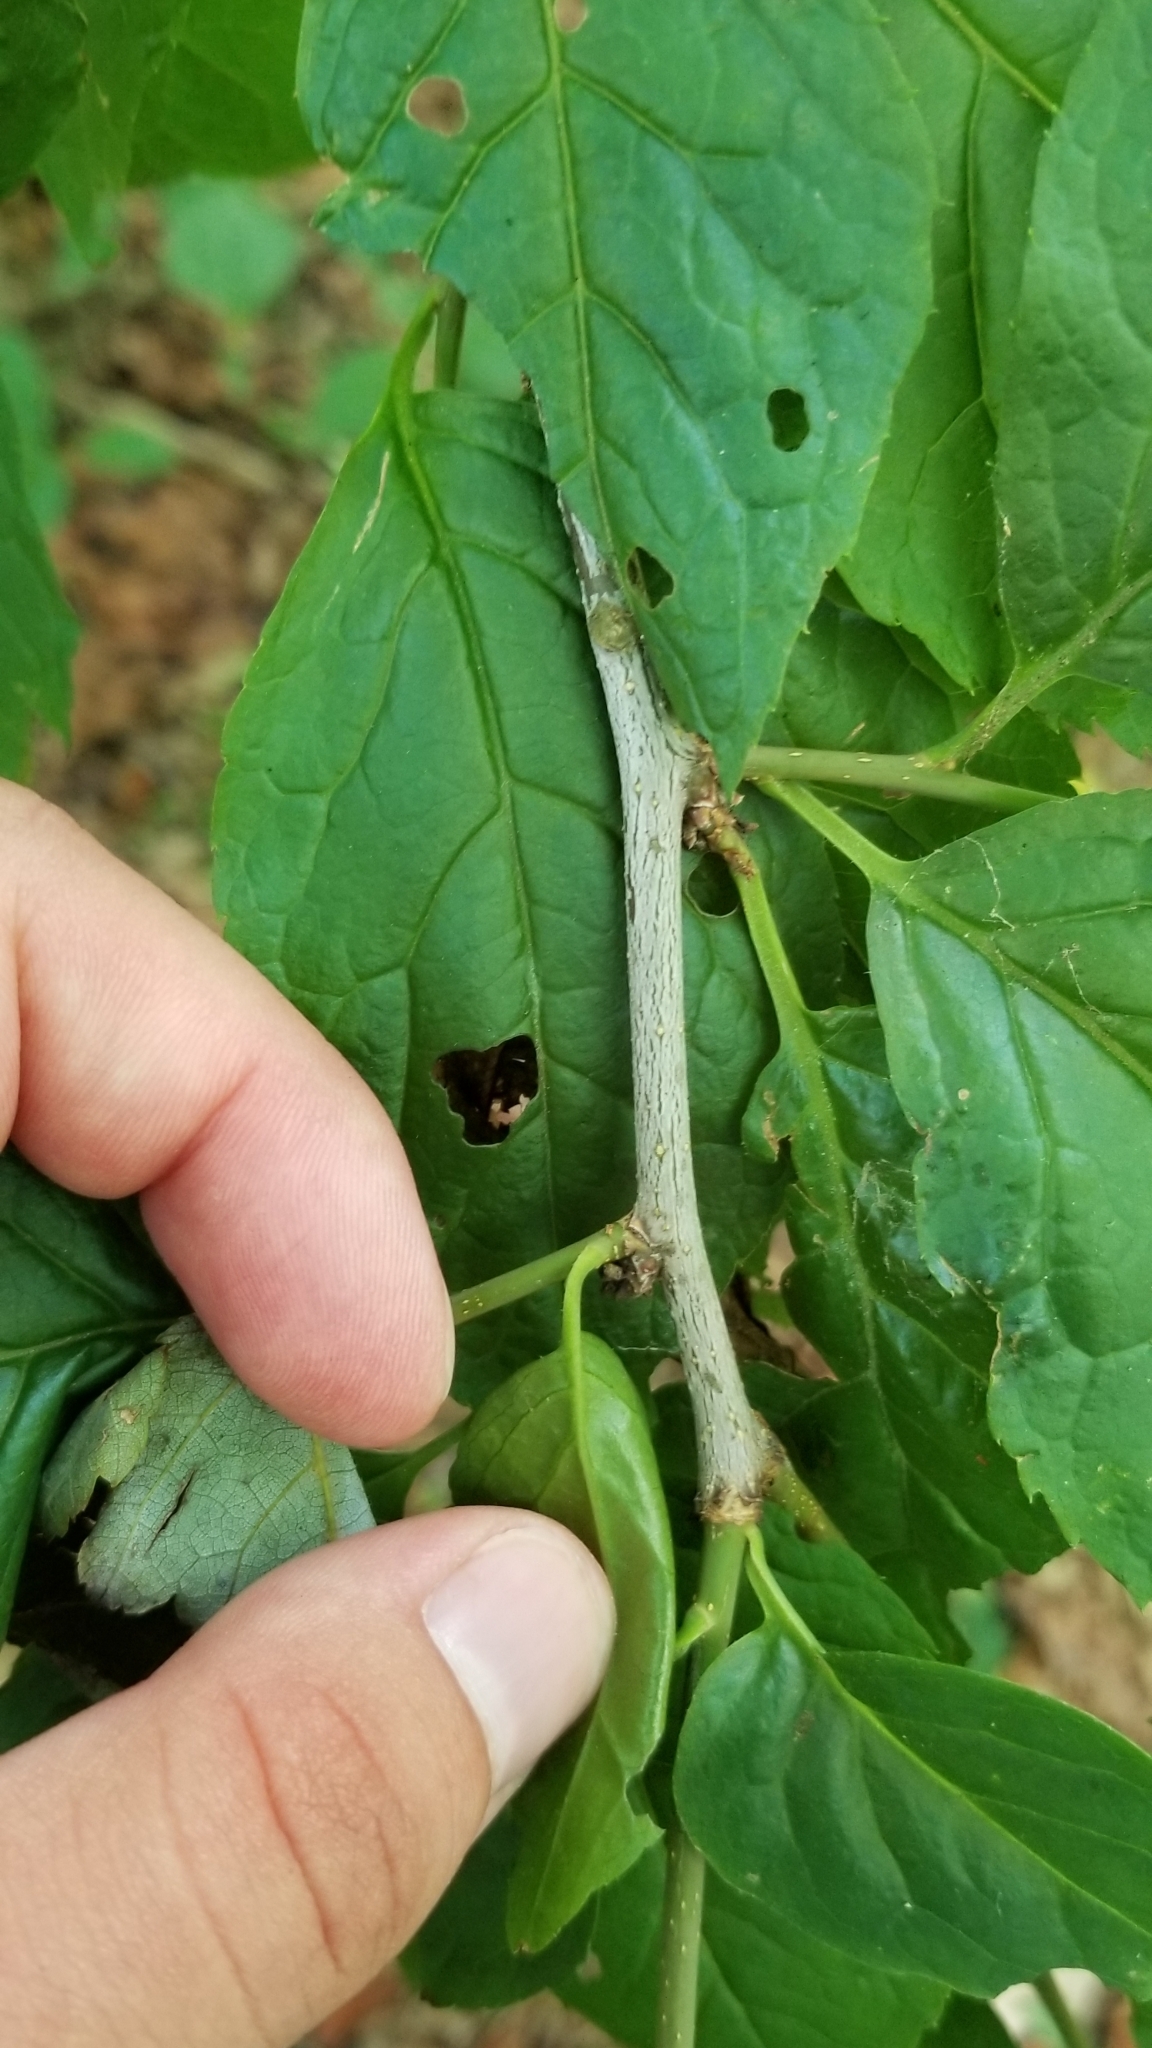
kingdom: Plantae
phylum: Tracheophyta
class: Magnoliopsida
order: Aquifoliales
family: Aquifoliaceae
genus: Ilex
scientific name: Ilex montana
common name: Mountain winterberry
